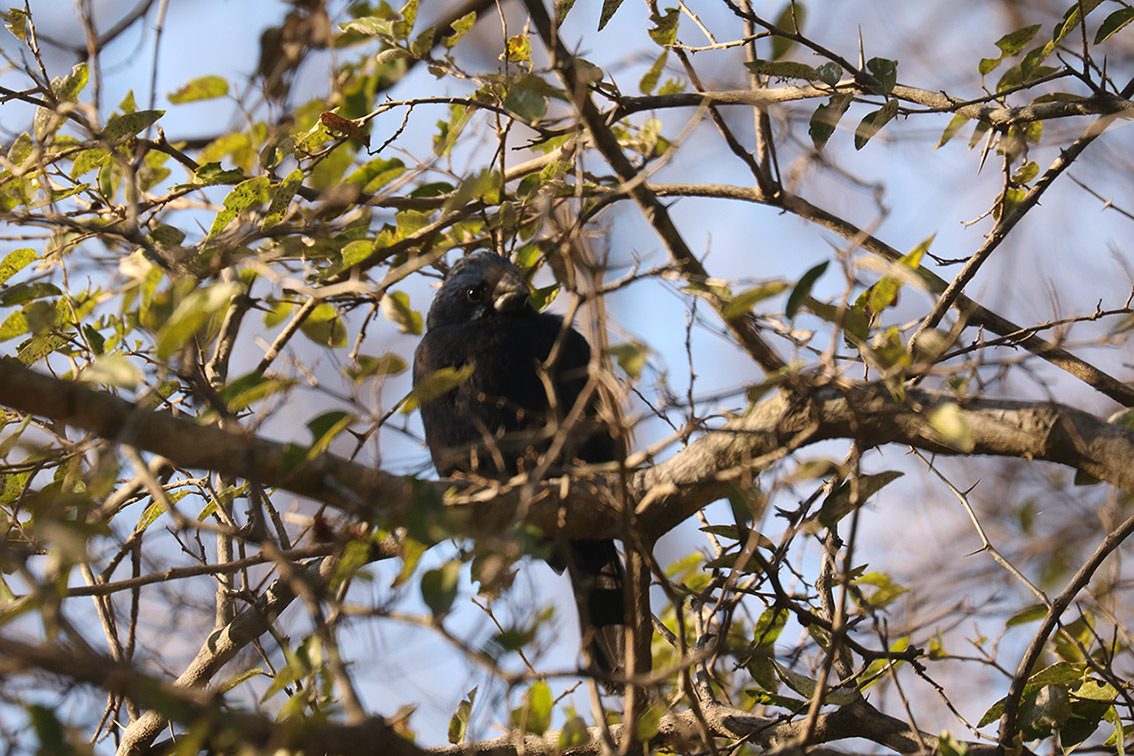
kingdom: Animalia
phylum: Chordata
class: Aves
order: Passeriformes
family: Cardinalidae
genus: Cyanoloxia
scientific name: Cyanoloxia brissonii
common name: Ultramarine grosbeak
